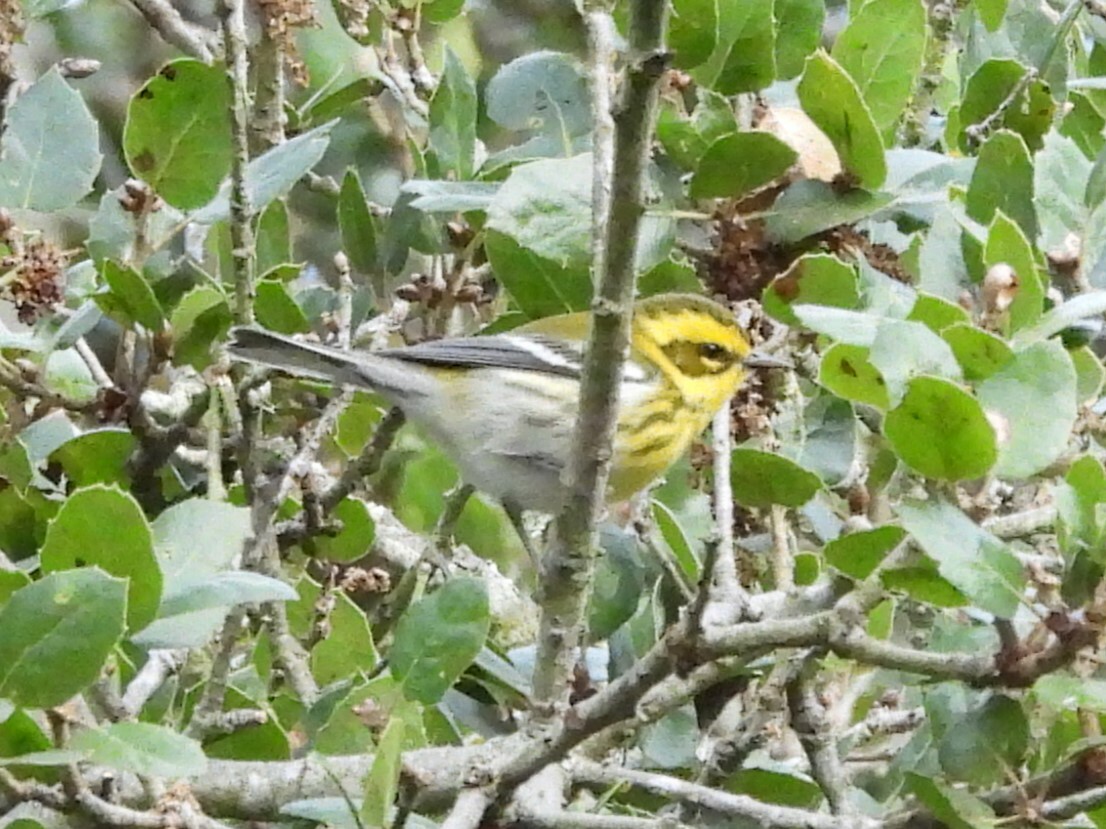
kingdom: Animalia
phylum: Chordata
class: Aves
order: Passeriformes
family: Parulidae
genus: Setophaga
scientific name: Setophaga townsendi
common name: Townsend's warbler
